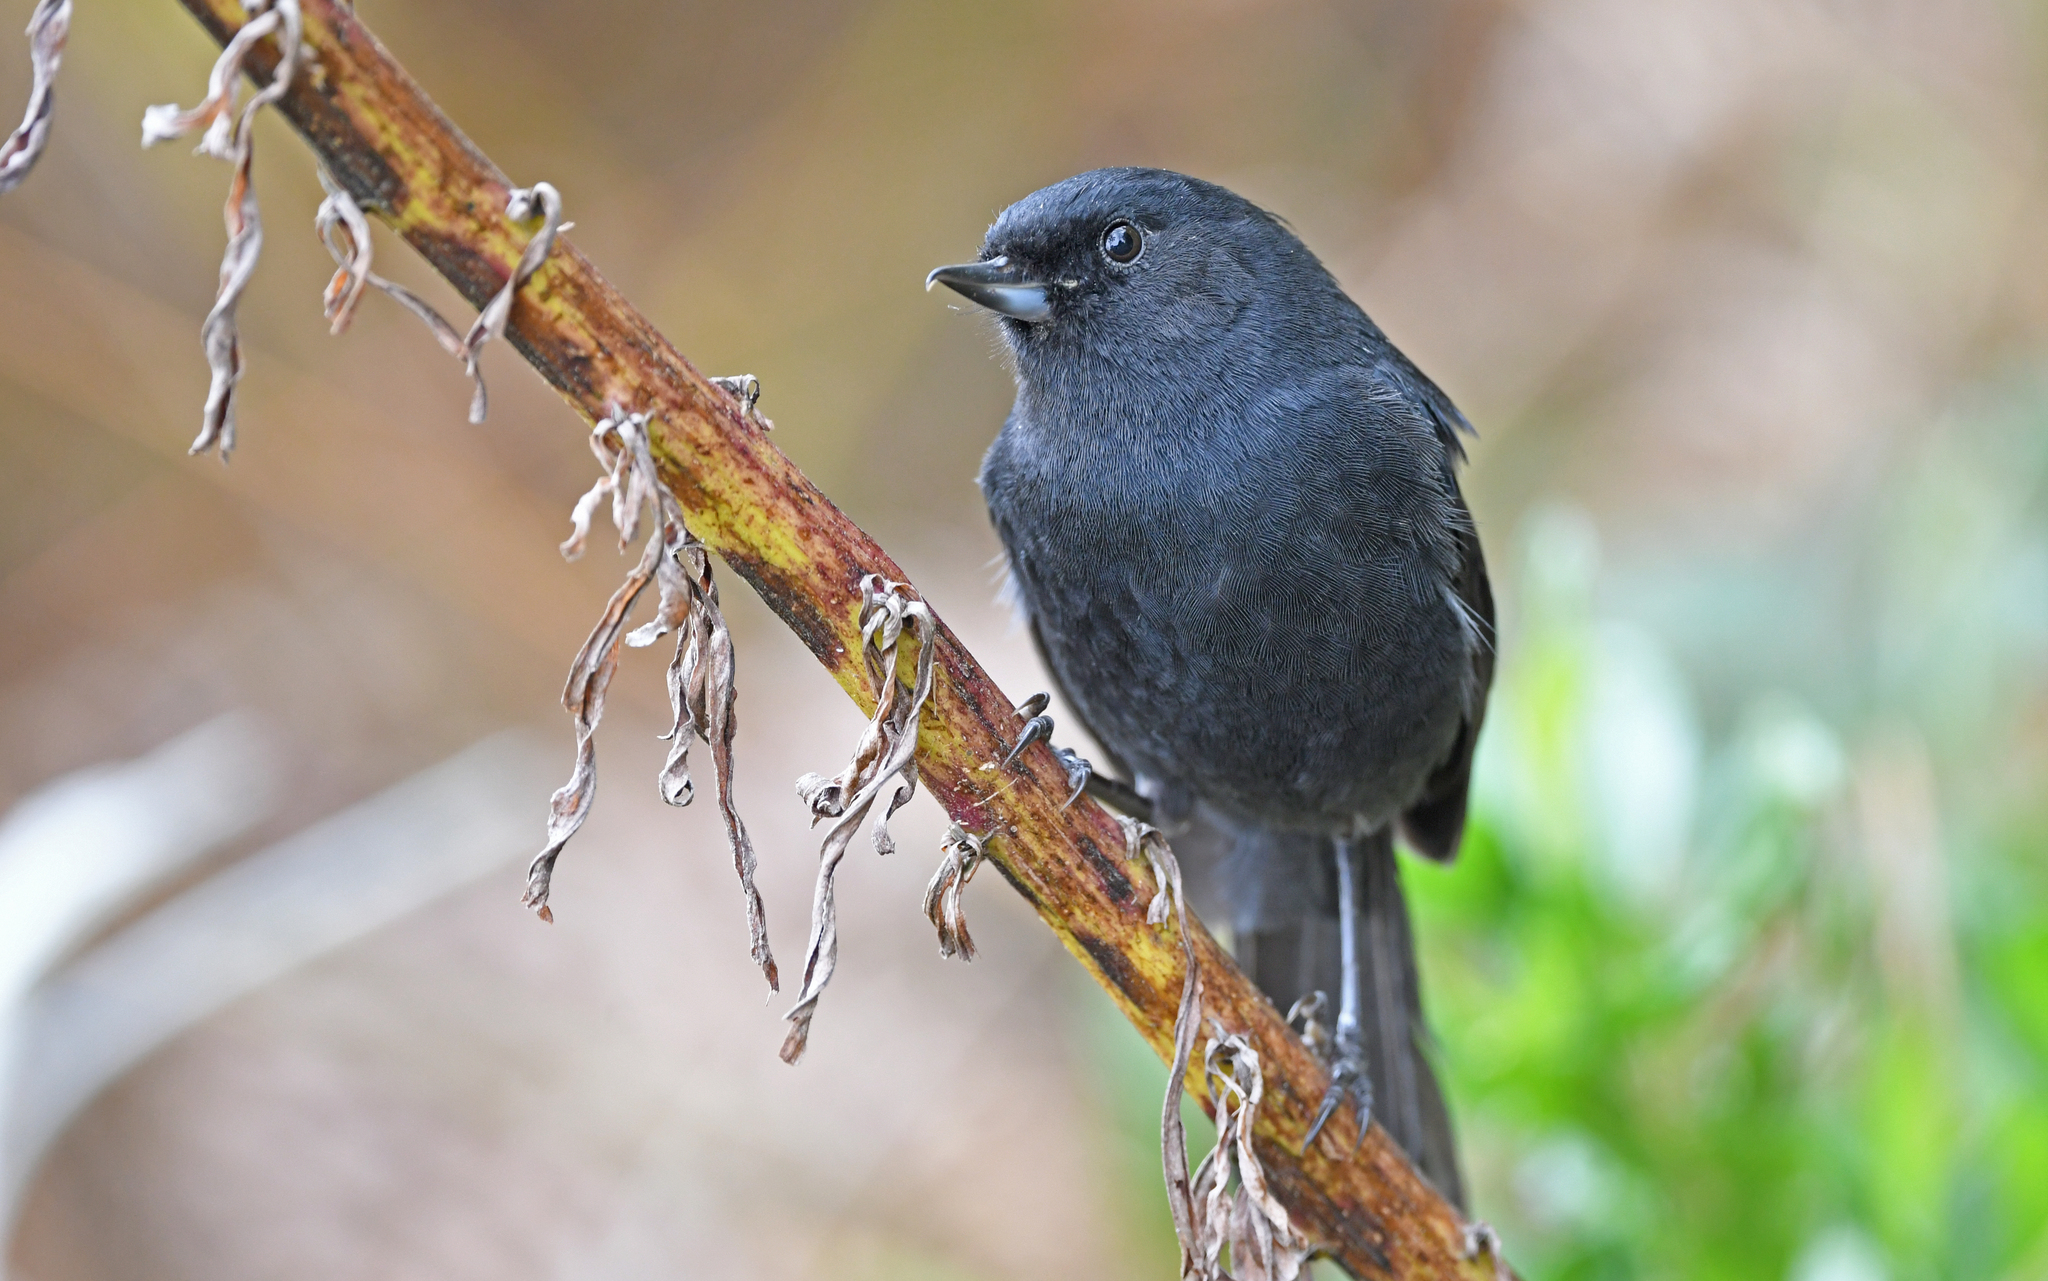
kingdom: Animalia
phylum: Chordata
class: Aves
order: Passeriformes
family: Thraupidae
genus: Diglossa
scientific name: Diglossa humeralis
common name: Black flowerpiercer
